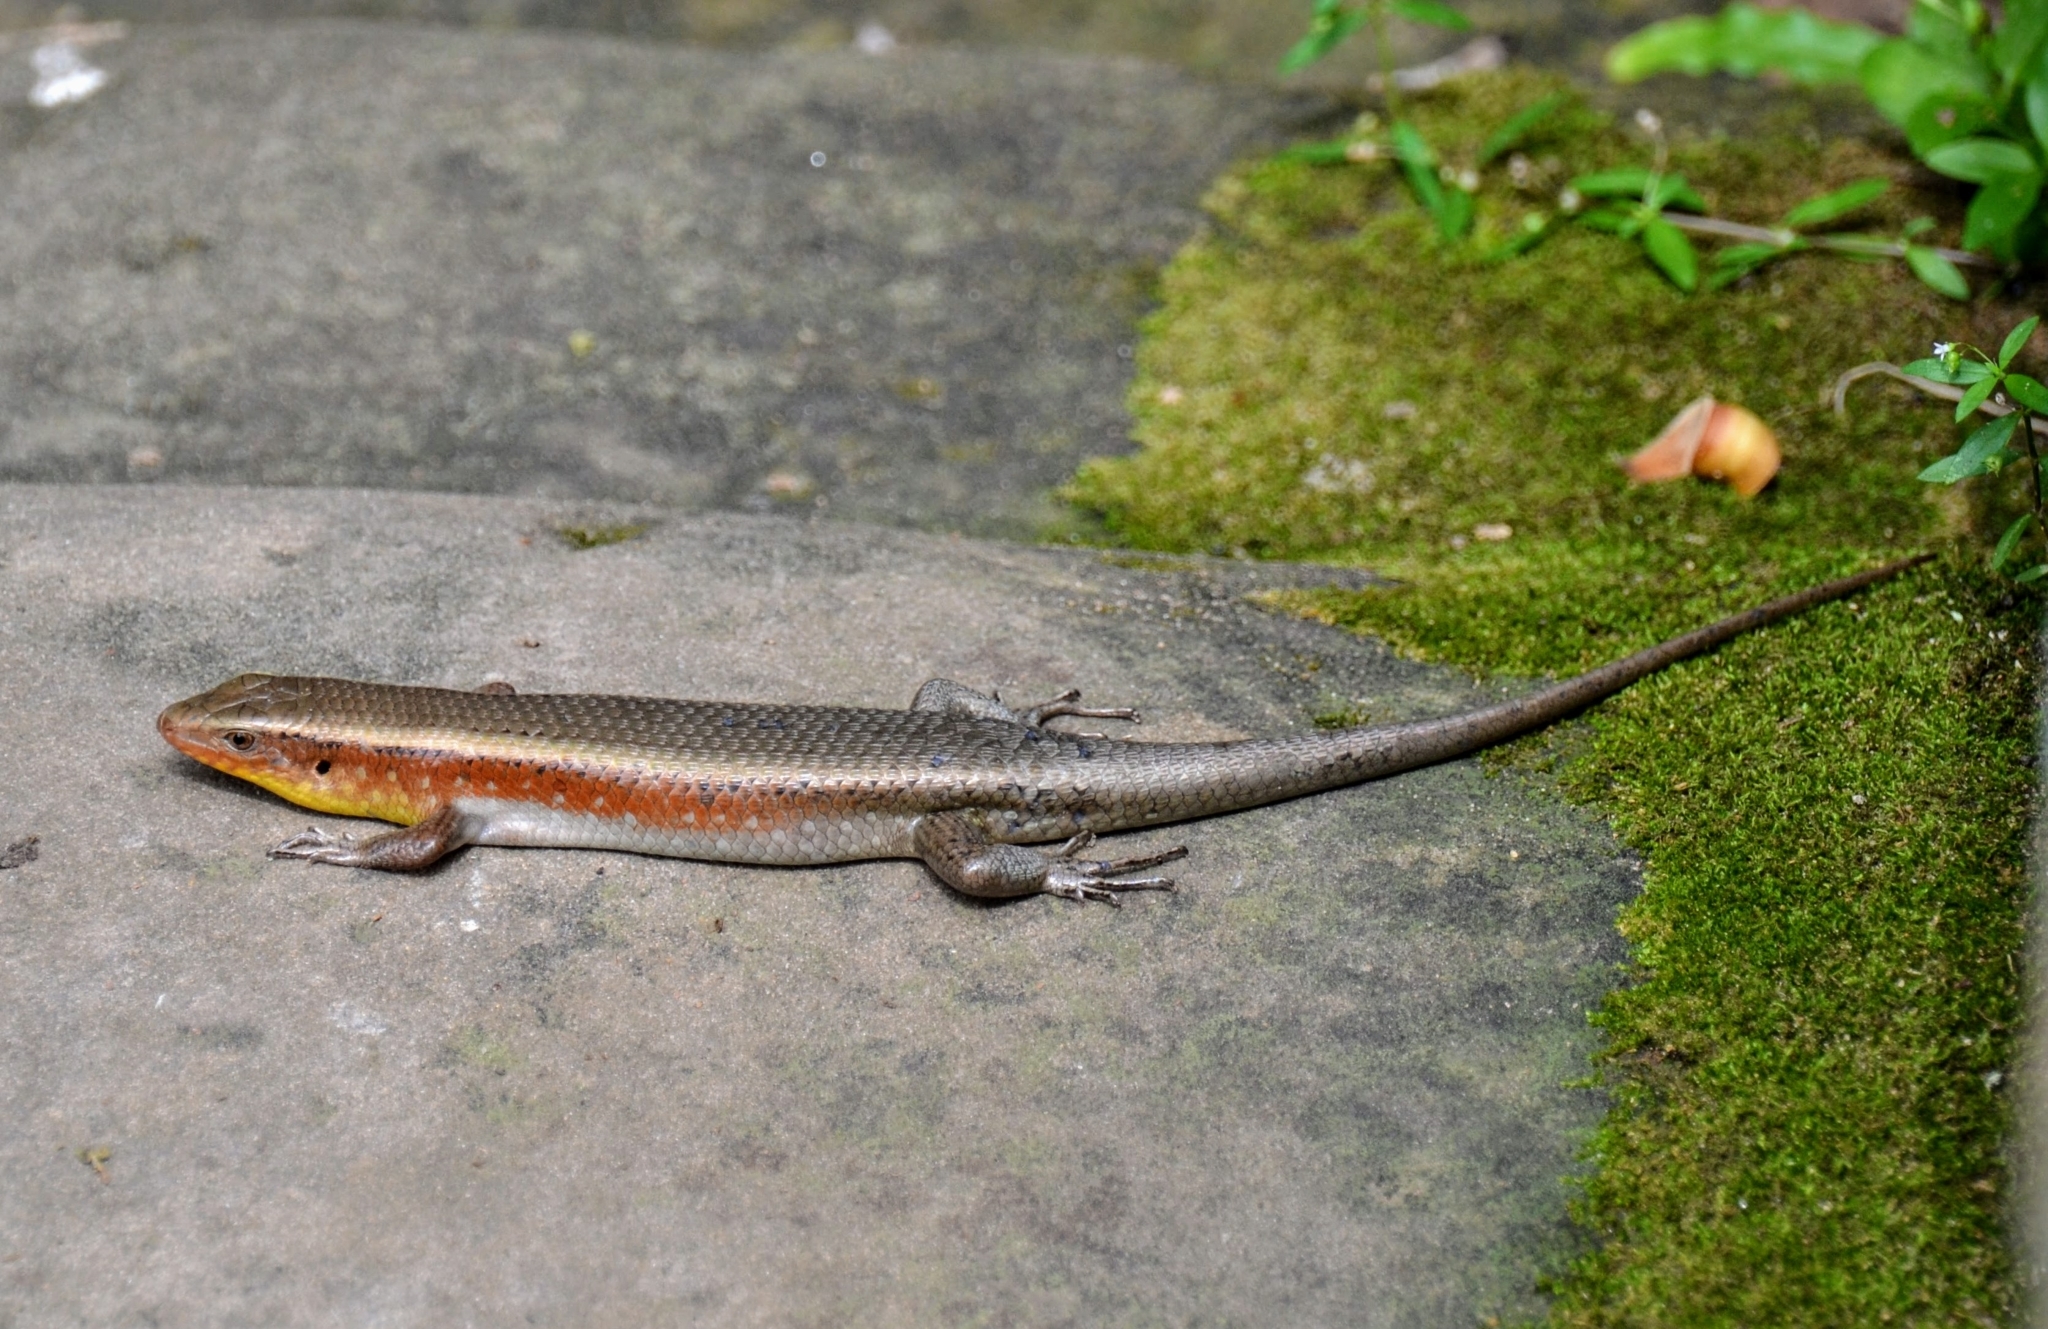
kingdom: Animalia
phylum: Chordata
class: Squamata
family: Scincidae
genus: Eutropis
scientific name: Eutropis multifasciata
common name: Common mabuya
